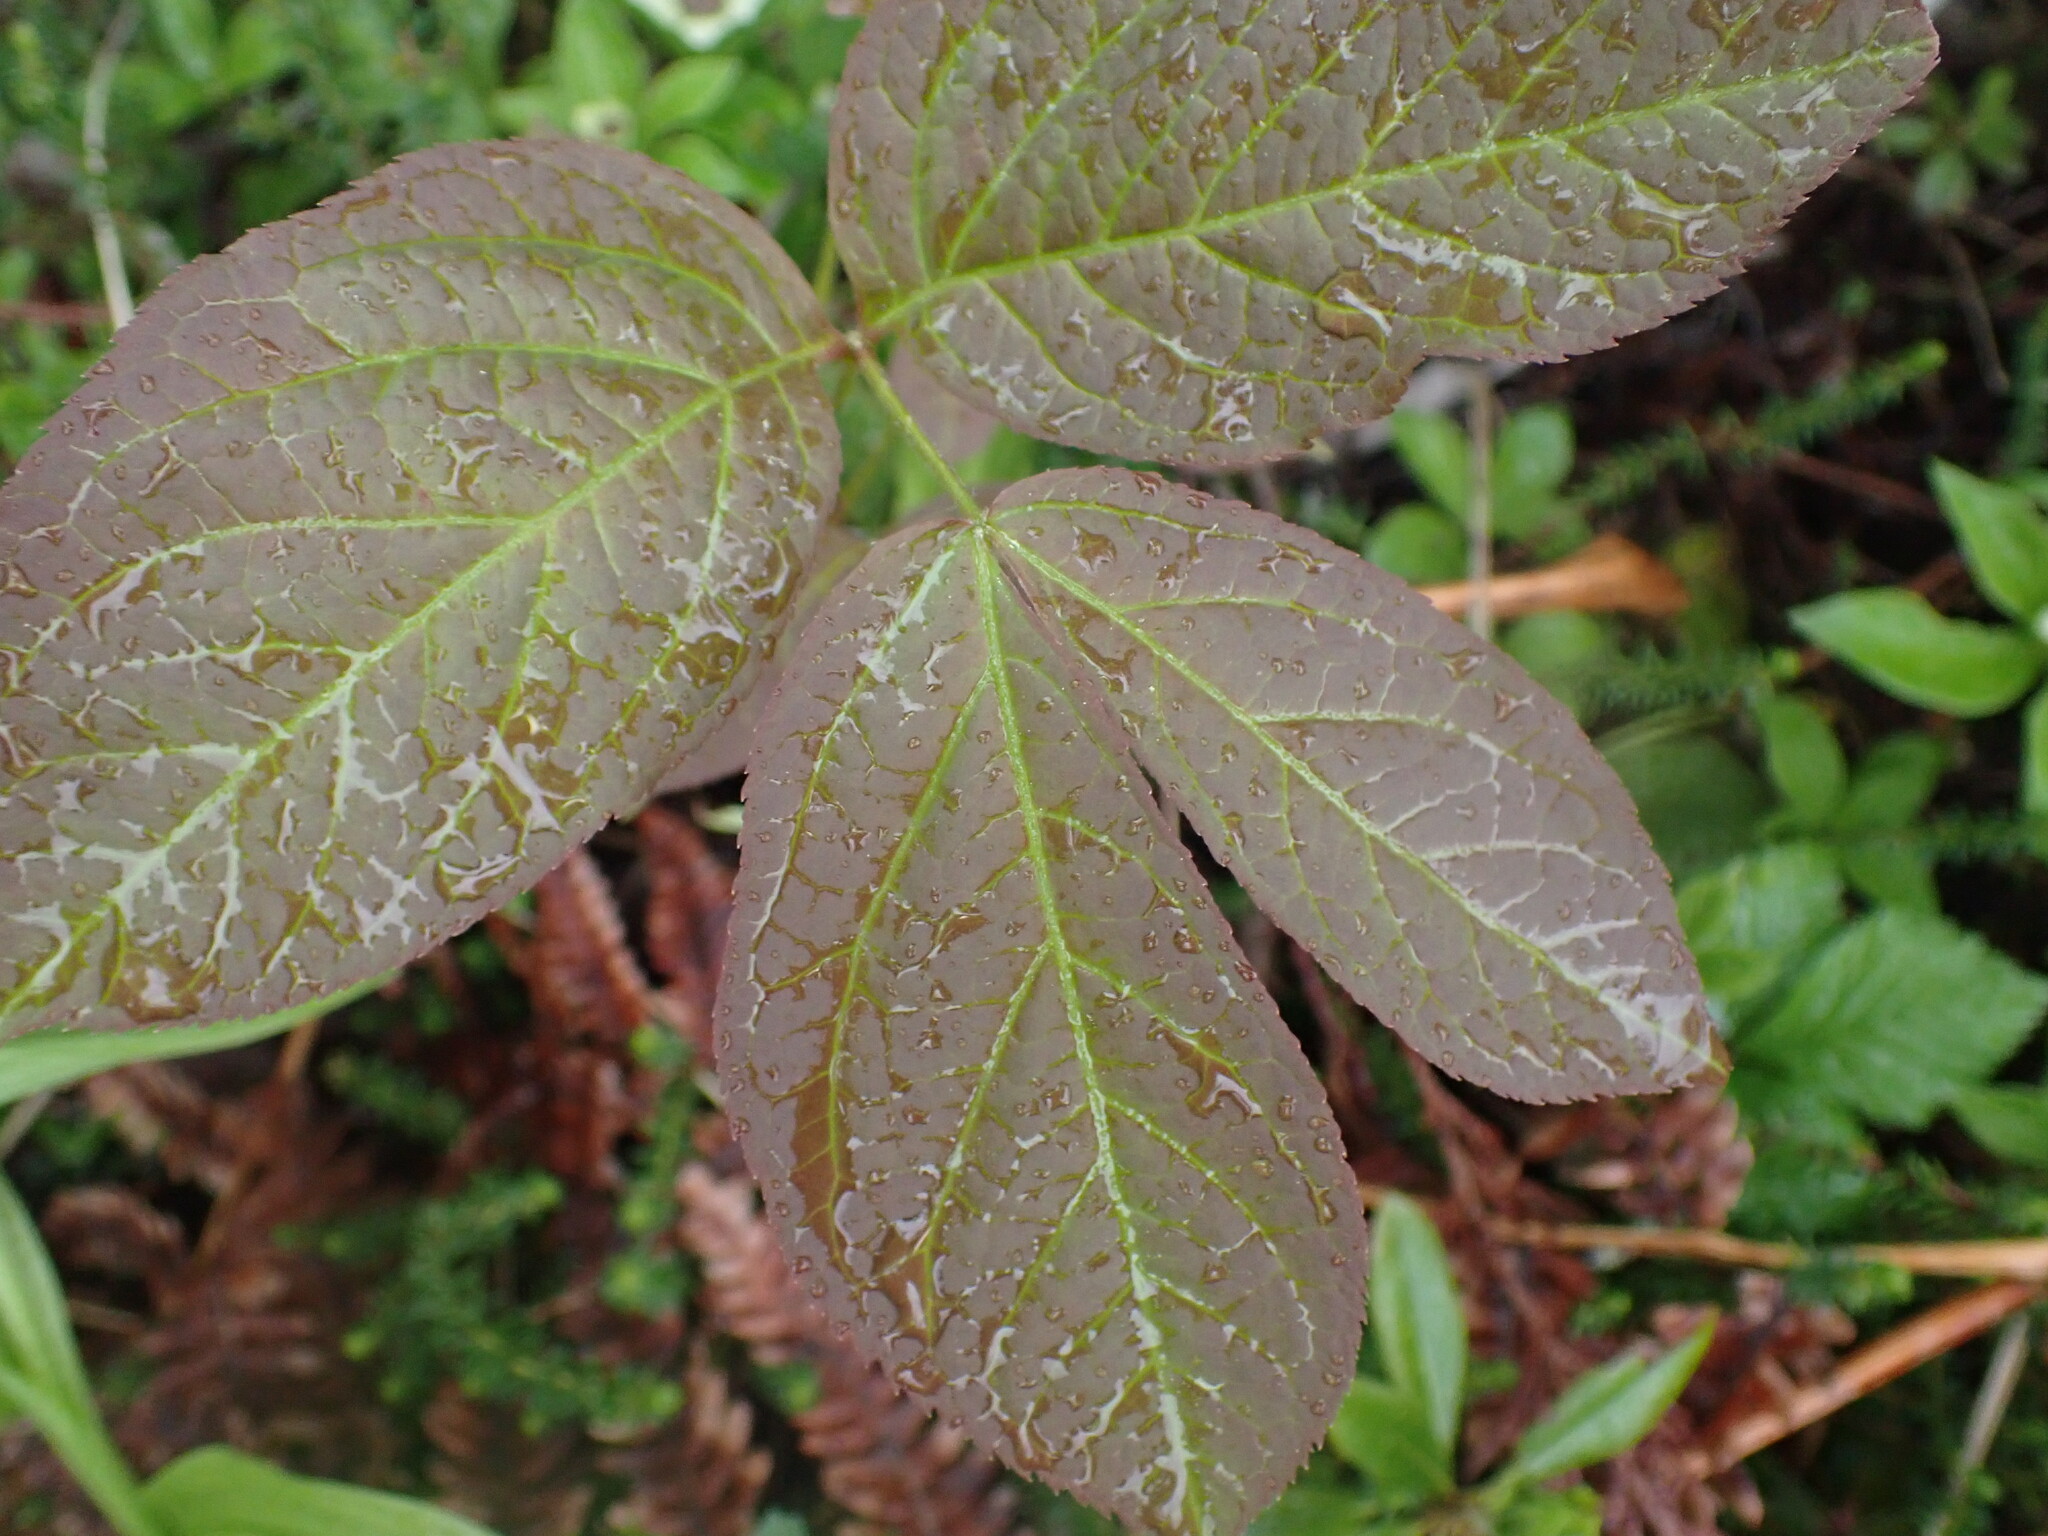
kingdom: Plantae
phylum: Tracheophyta
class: Magnoliopsida
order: Apiales
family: Araliaceae
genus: Aralia
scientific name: Aralia nudicaulis
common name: Wild sarsaparilla
